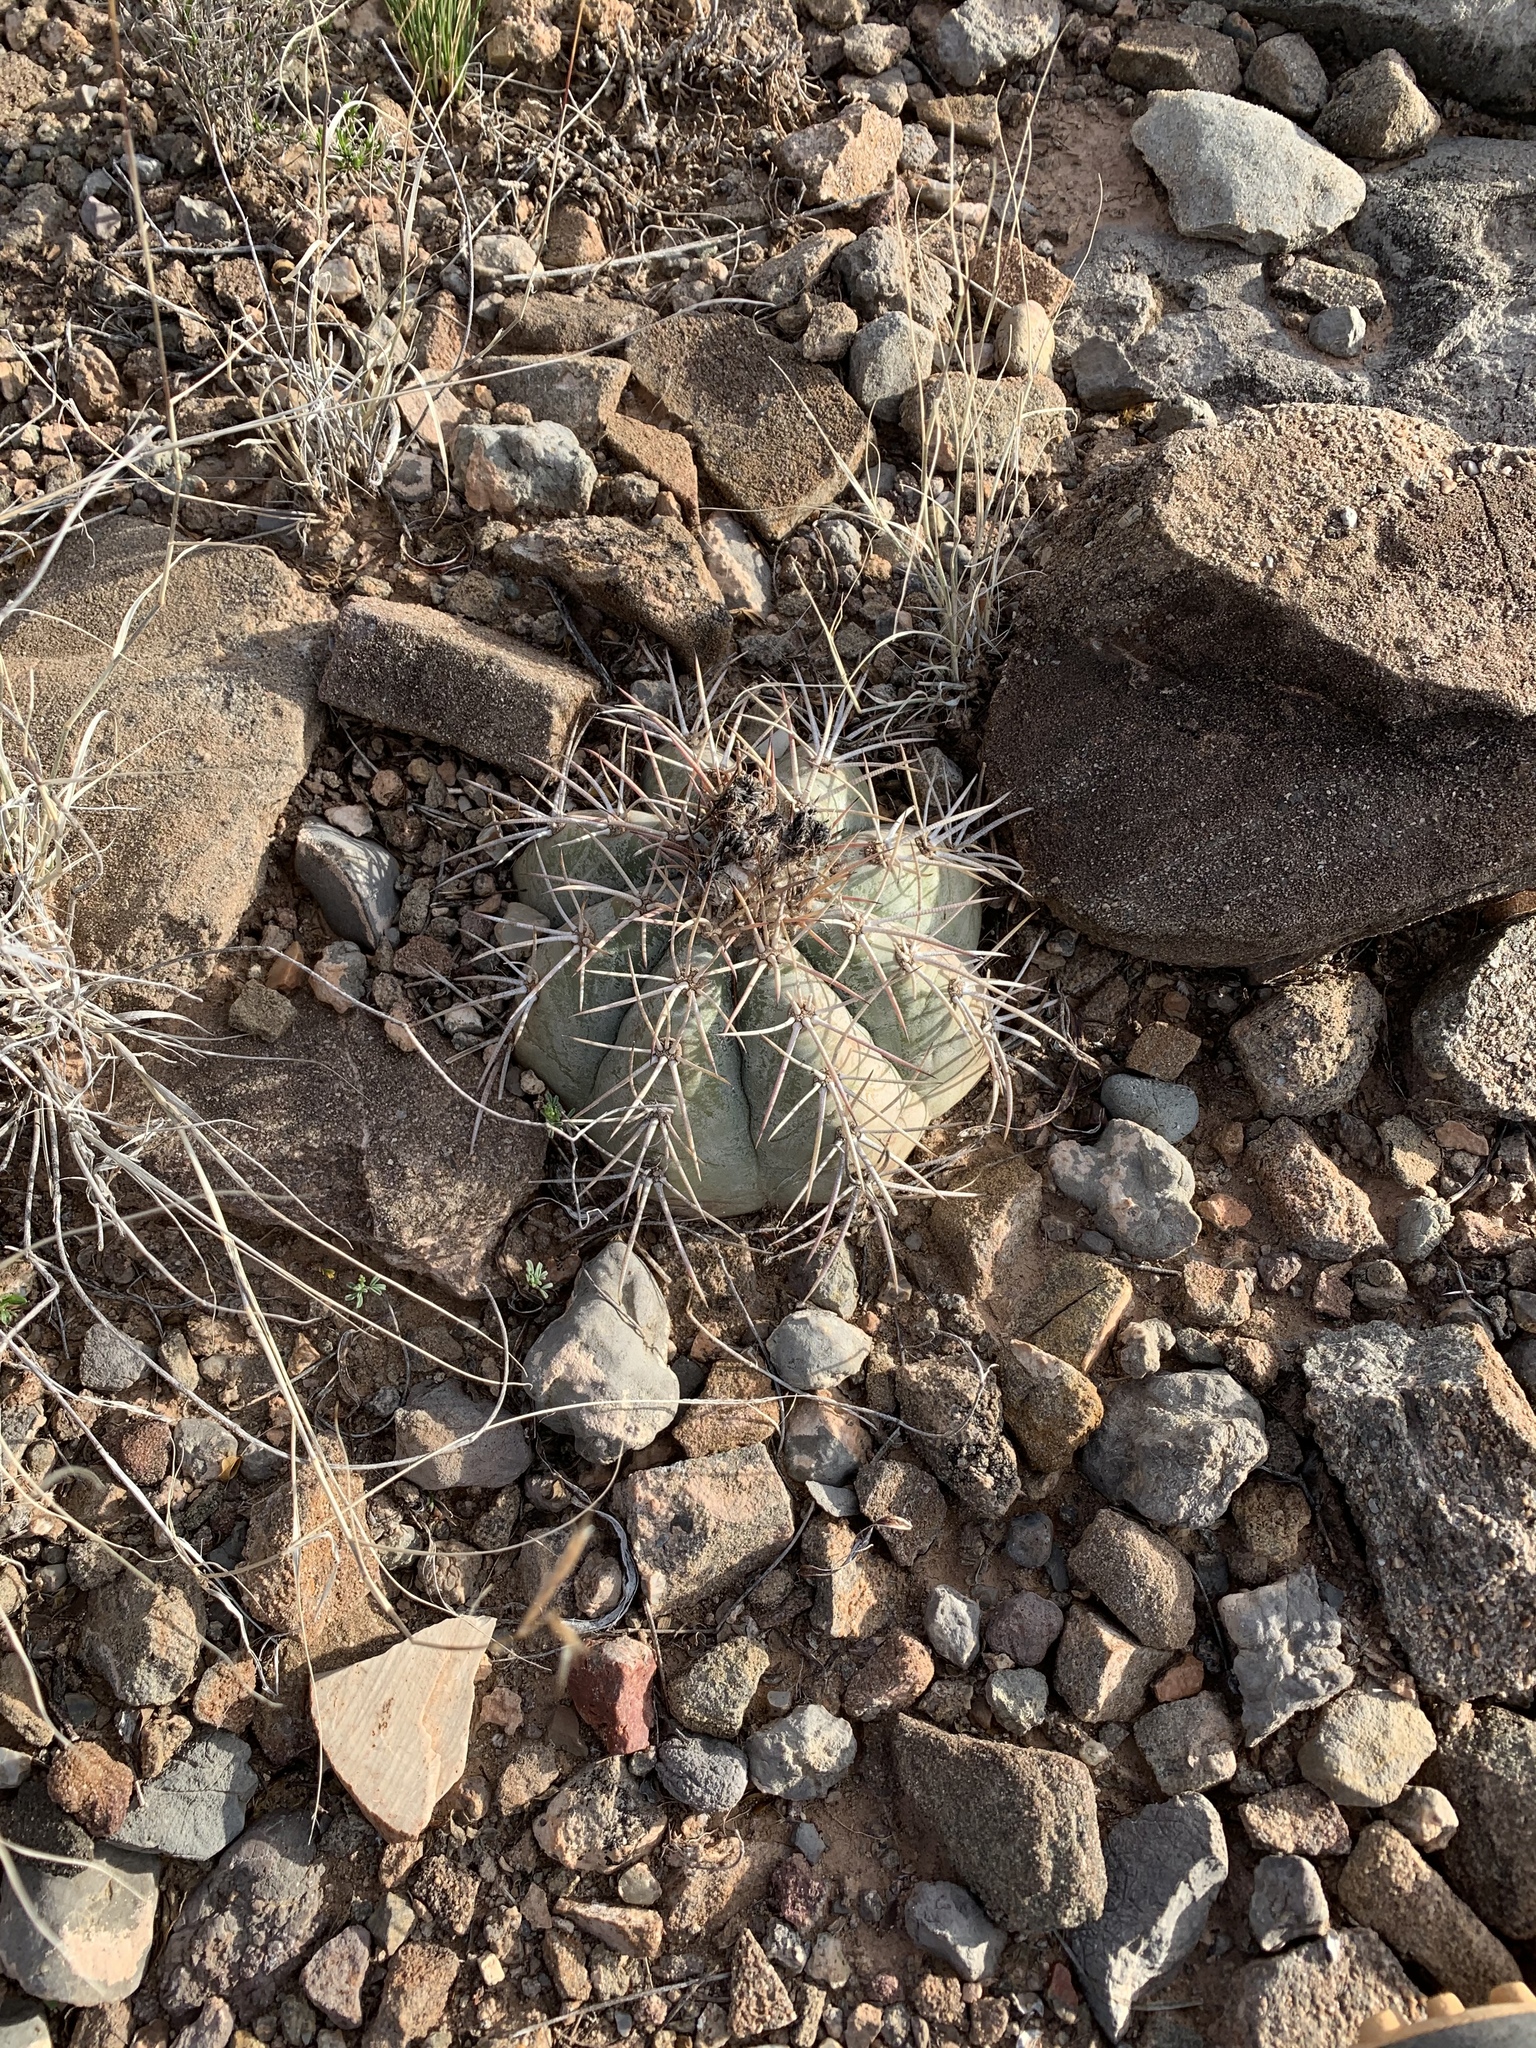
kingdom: Plantae
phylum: Tracheophyta
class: Magnoliopsida
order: Caryophyllales
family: Cactaceae
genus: Echinocactus
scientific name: Echinocactus horizonthalonius
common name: Devilshead
